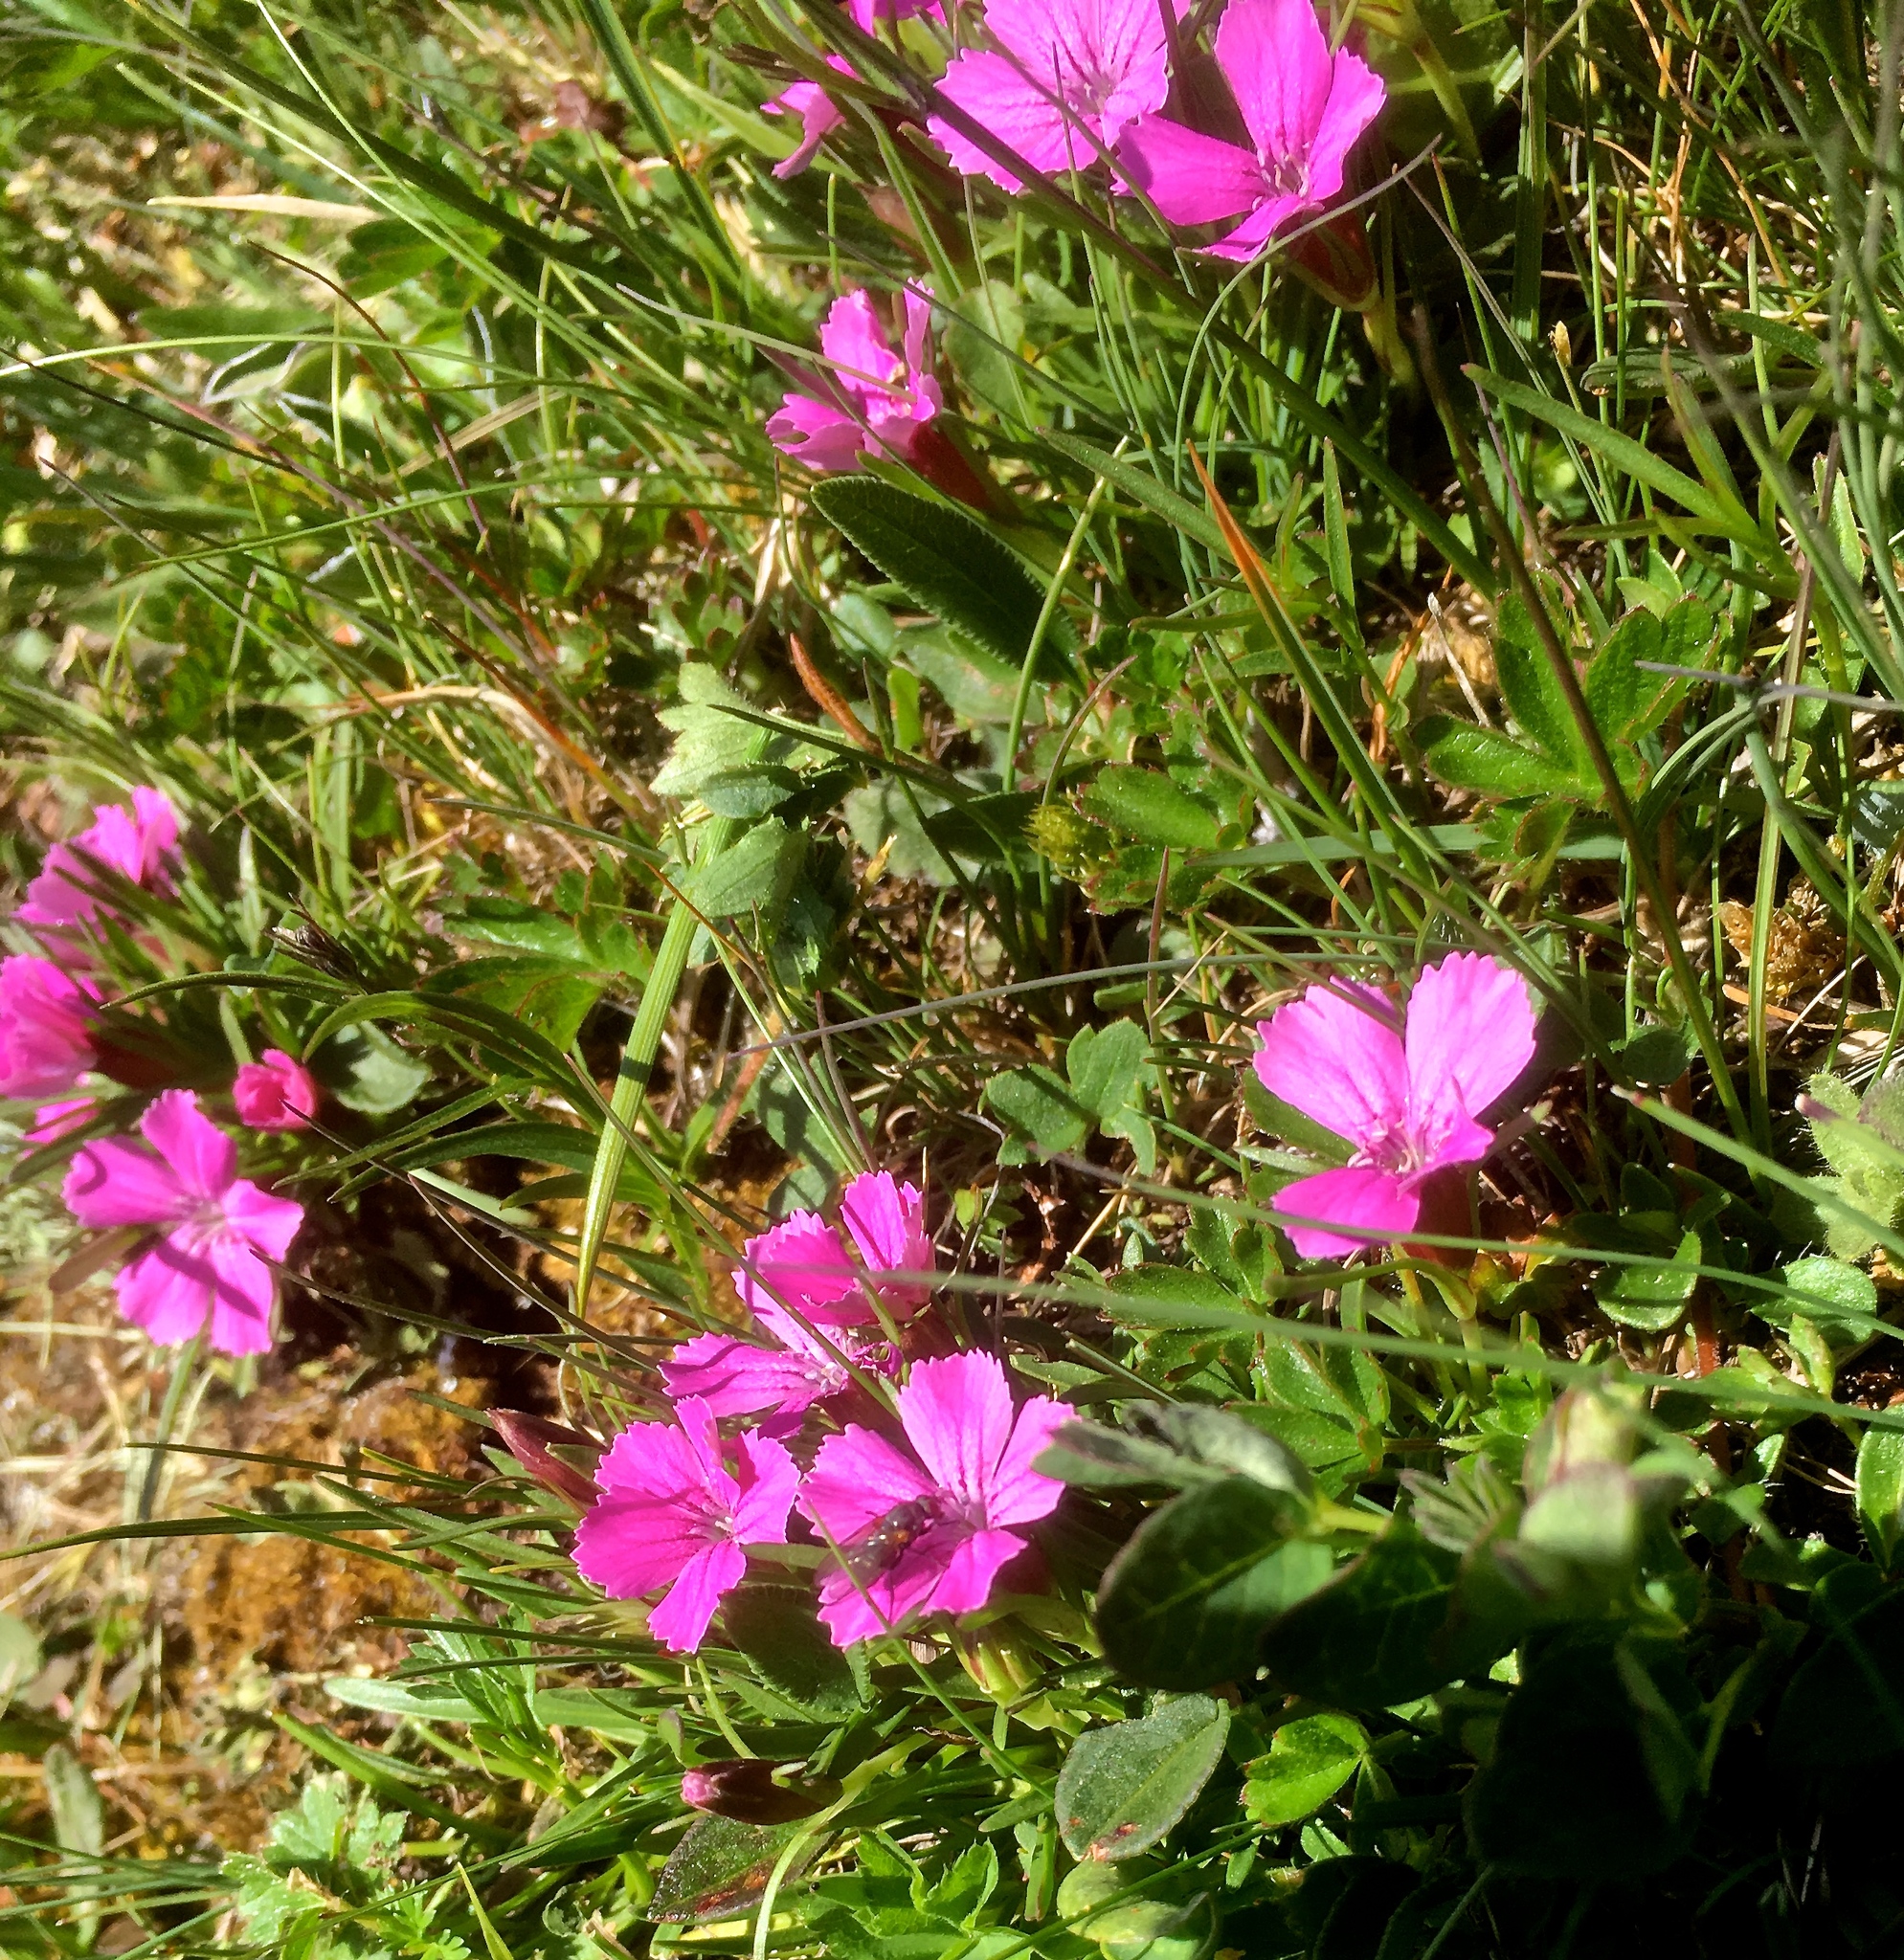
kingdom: Plantae
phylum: Tracheophyta
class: Magnoliopsida
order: Caryophyllales
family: Caryophyllaceae
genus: Dianthus
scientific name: Dianthus glacialis
